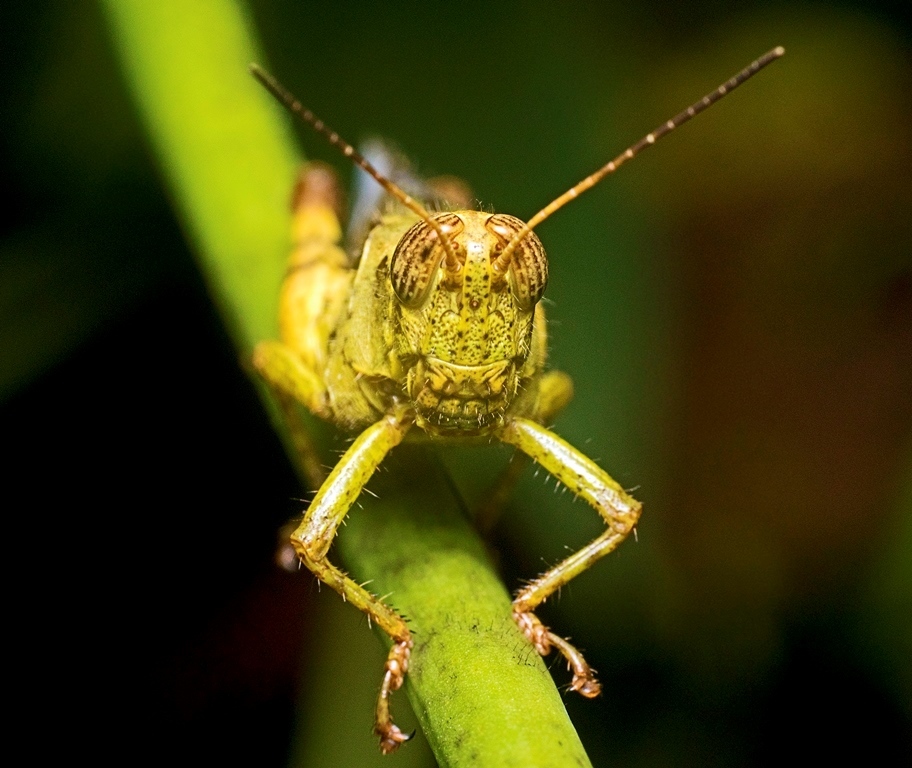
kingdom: Animalia
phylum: Arthropoda
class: Insecta
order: Orthoptera
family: Acrididae
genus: Xenocatantops
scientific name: Xenocatantops humile
